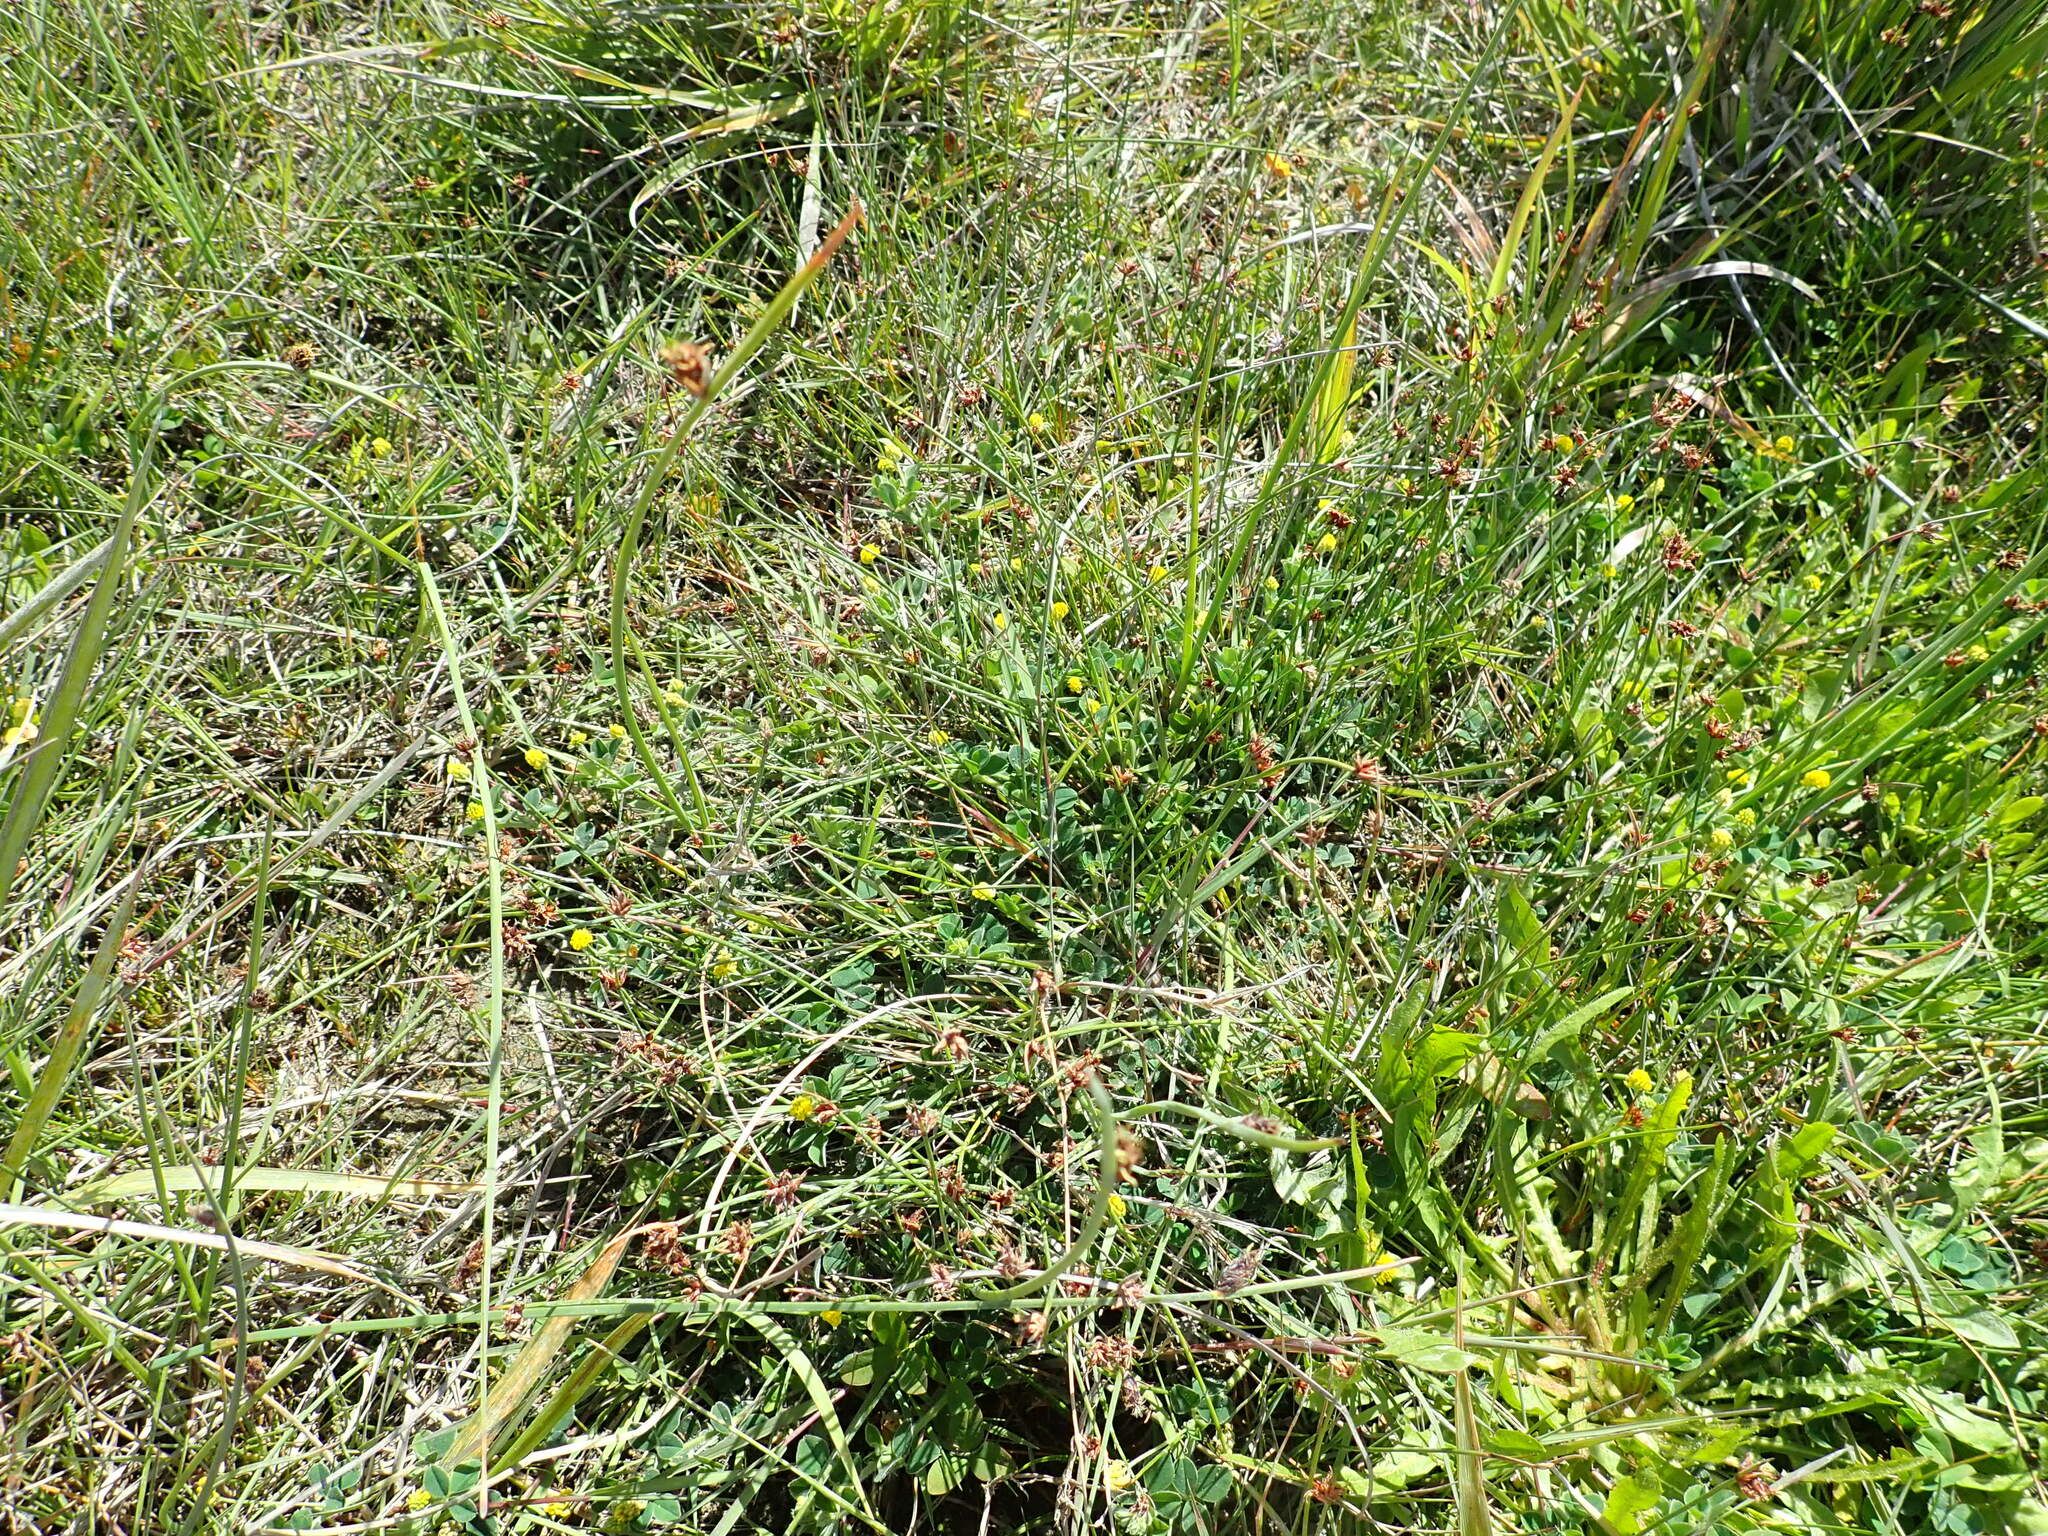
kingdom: Plantae
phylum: Tracheophyta
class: Magnoliopsida
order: Fabales
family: Fabaceae
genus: Medicago
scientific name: Medicago lupulina
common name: Black medick
